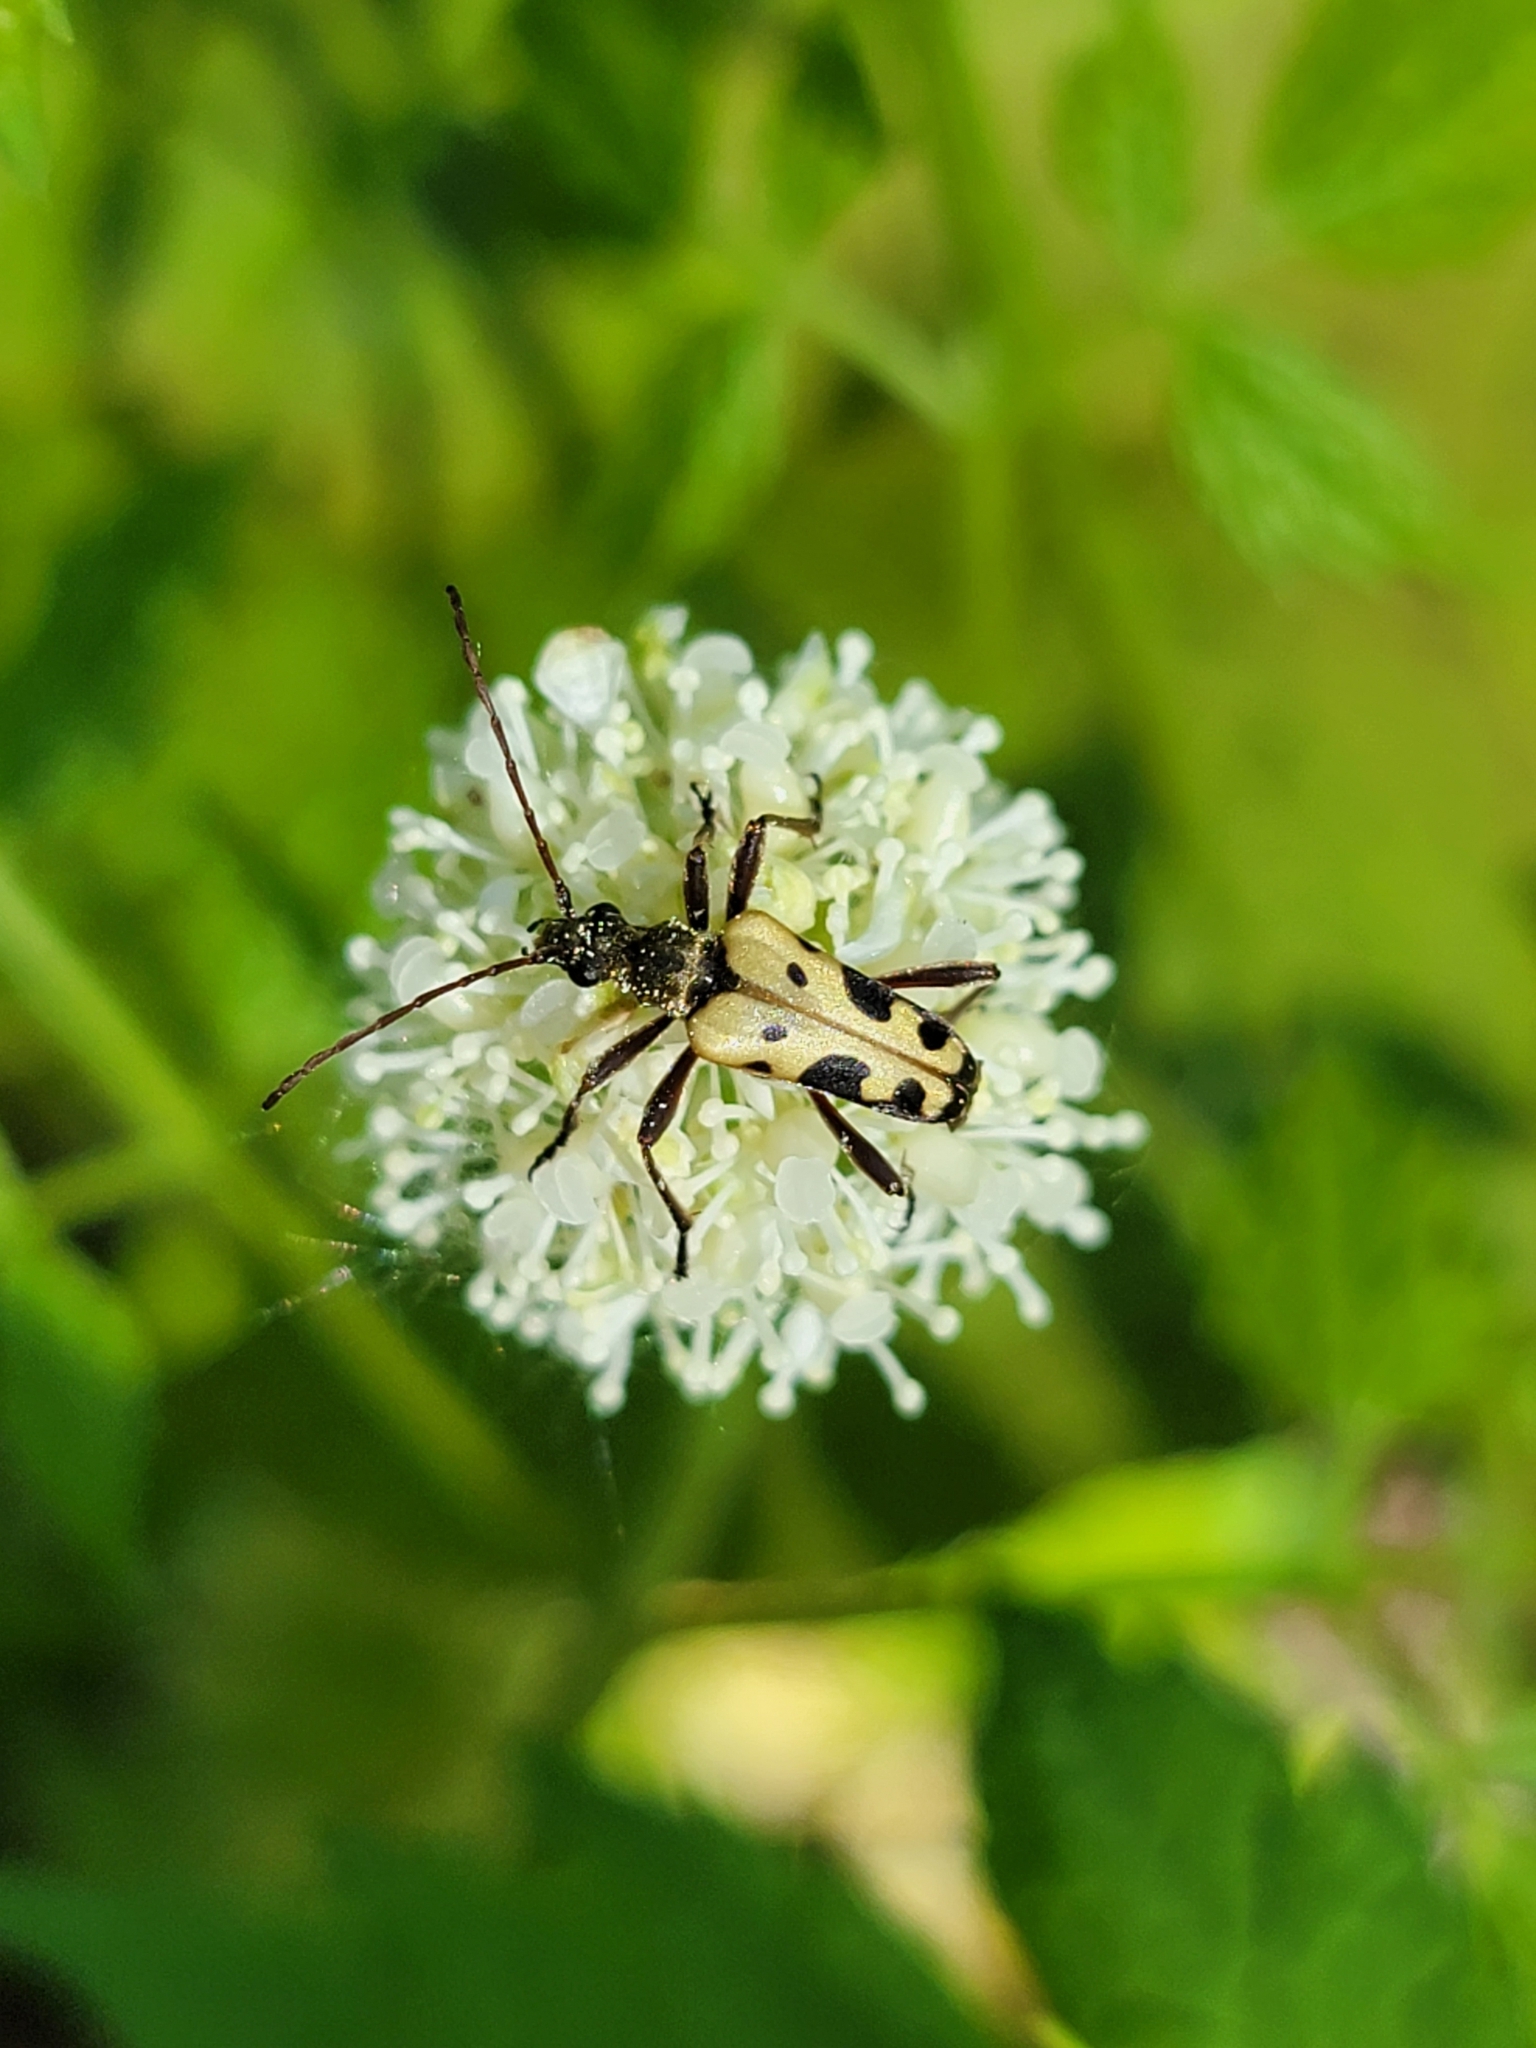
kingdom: Animalia
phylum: Arthropoda
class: Insecta
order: Coleoptera
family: Cerambycidae
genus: Evodinus
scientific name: Evodinus monticola
